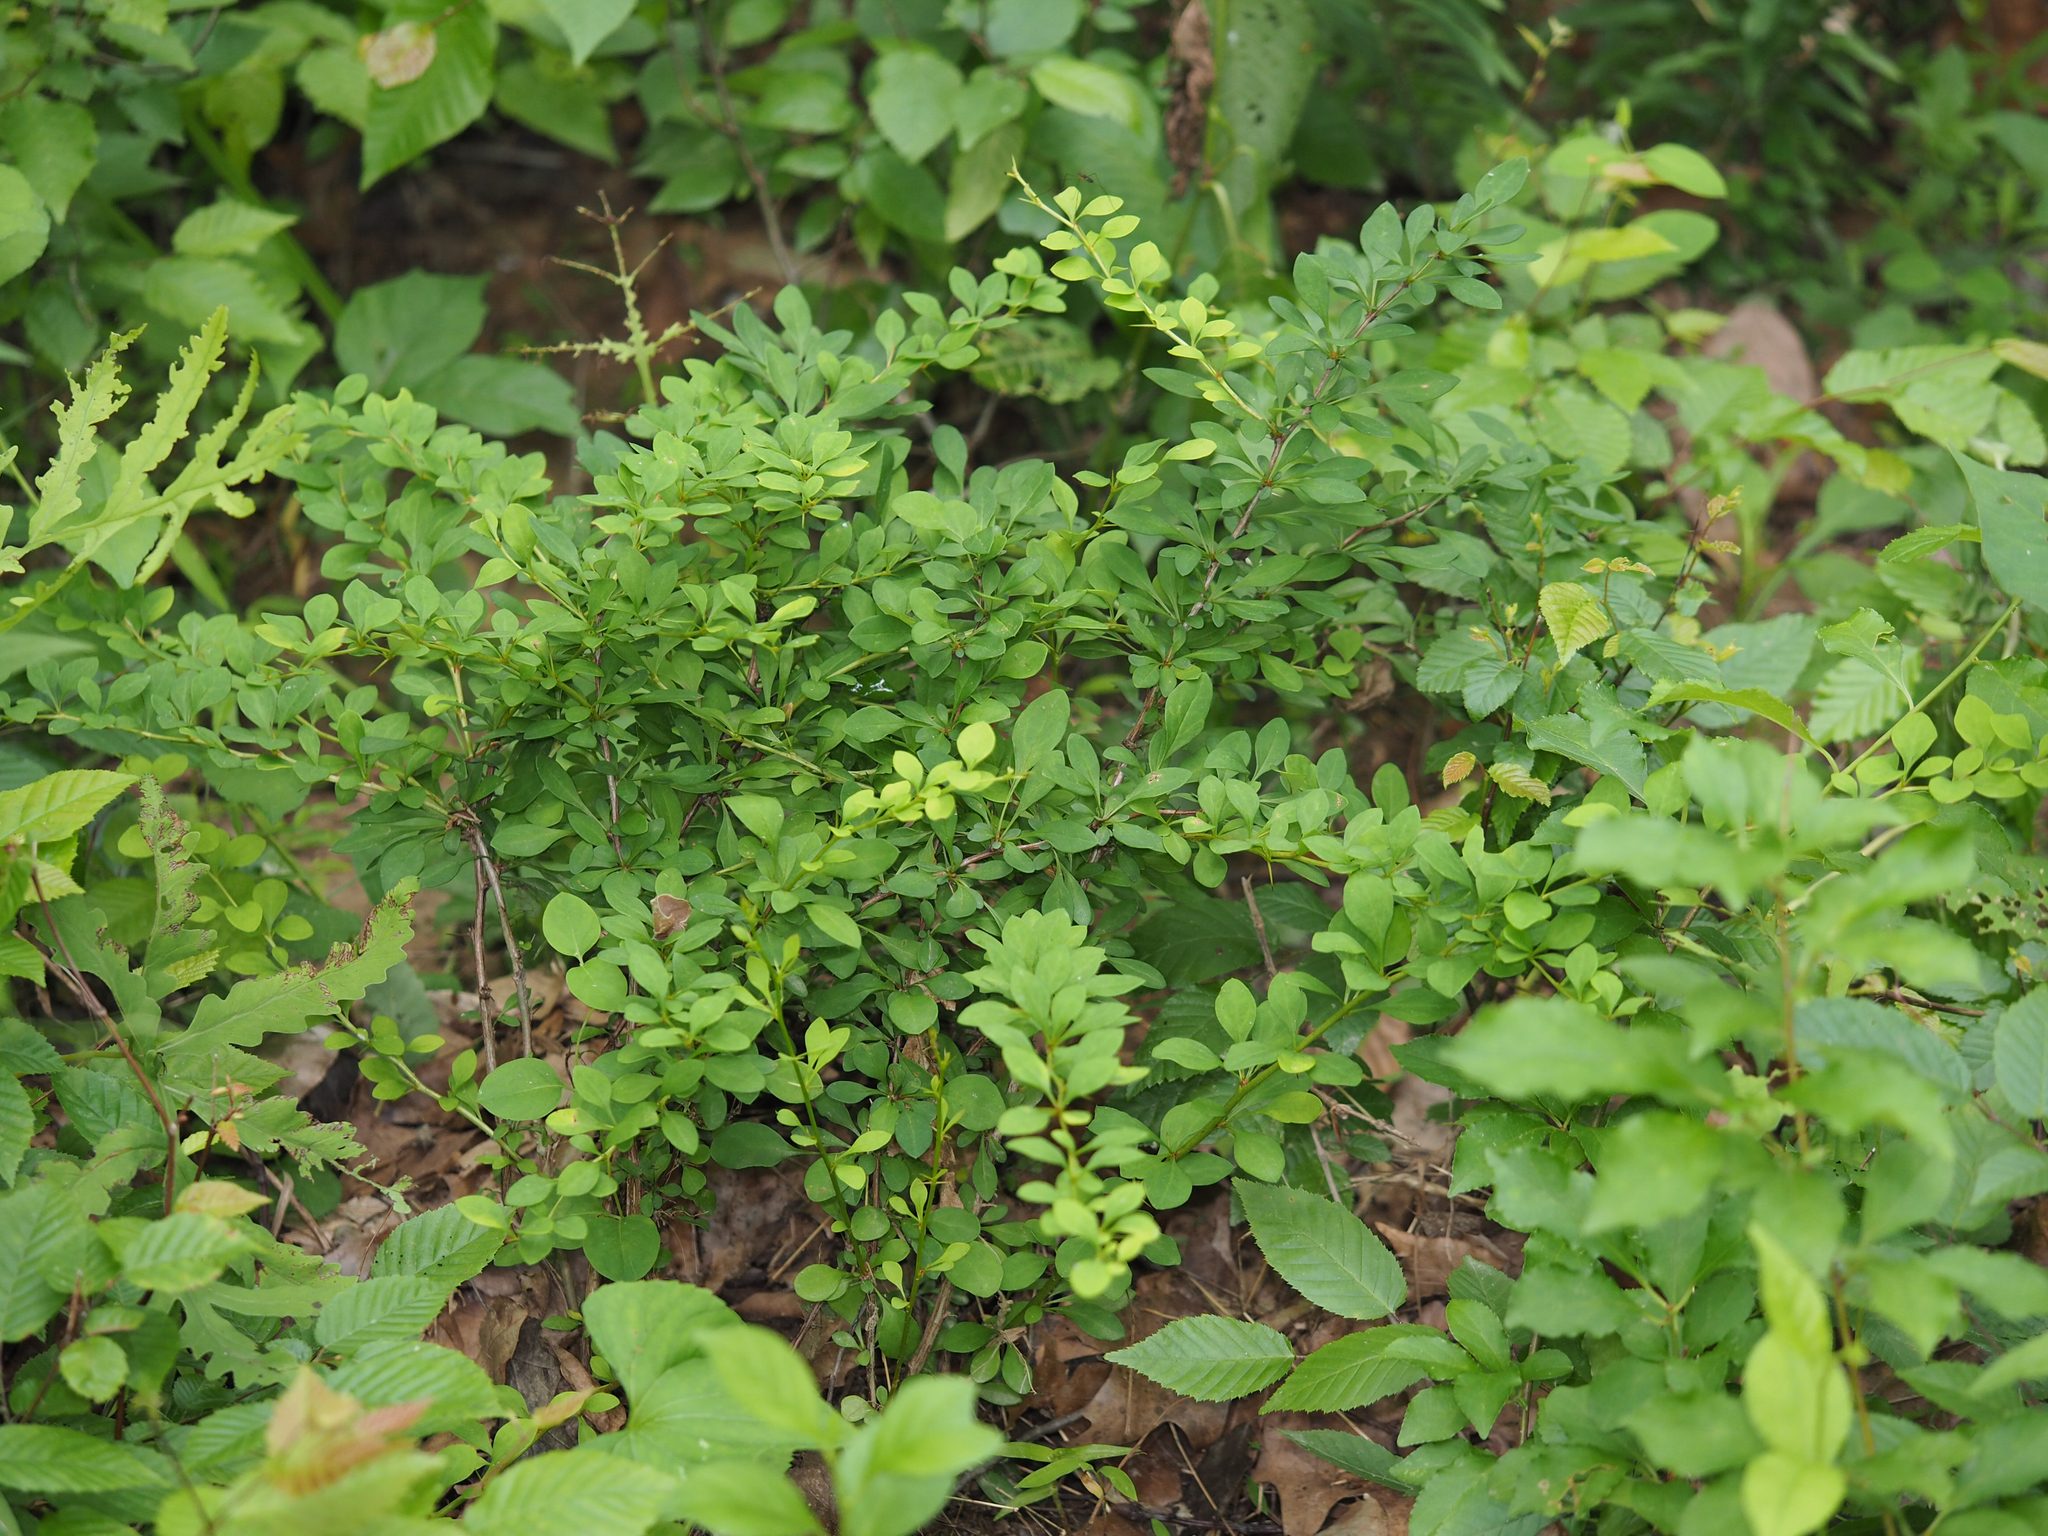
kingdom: Plantae
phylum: Tracheophyta
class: Magnoliopsida
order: Ranunculales
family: Berberidaceae
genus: Berberis
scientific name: Berberis thunbergii
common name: Japanese barberry
